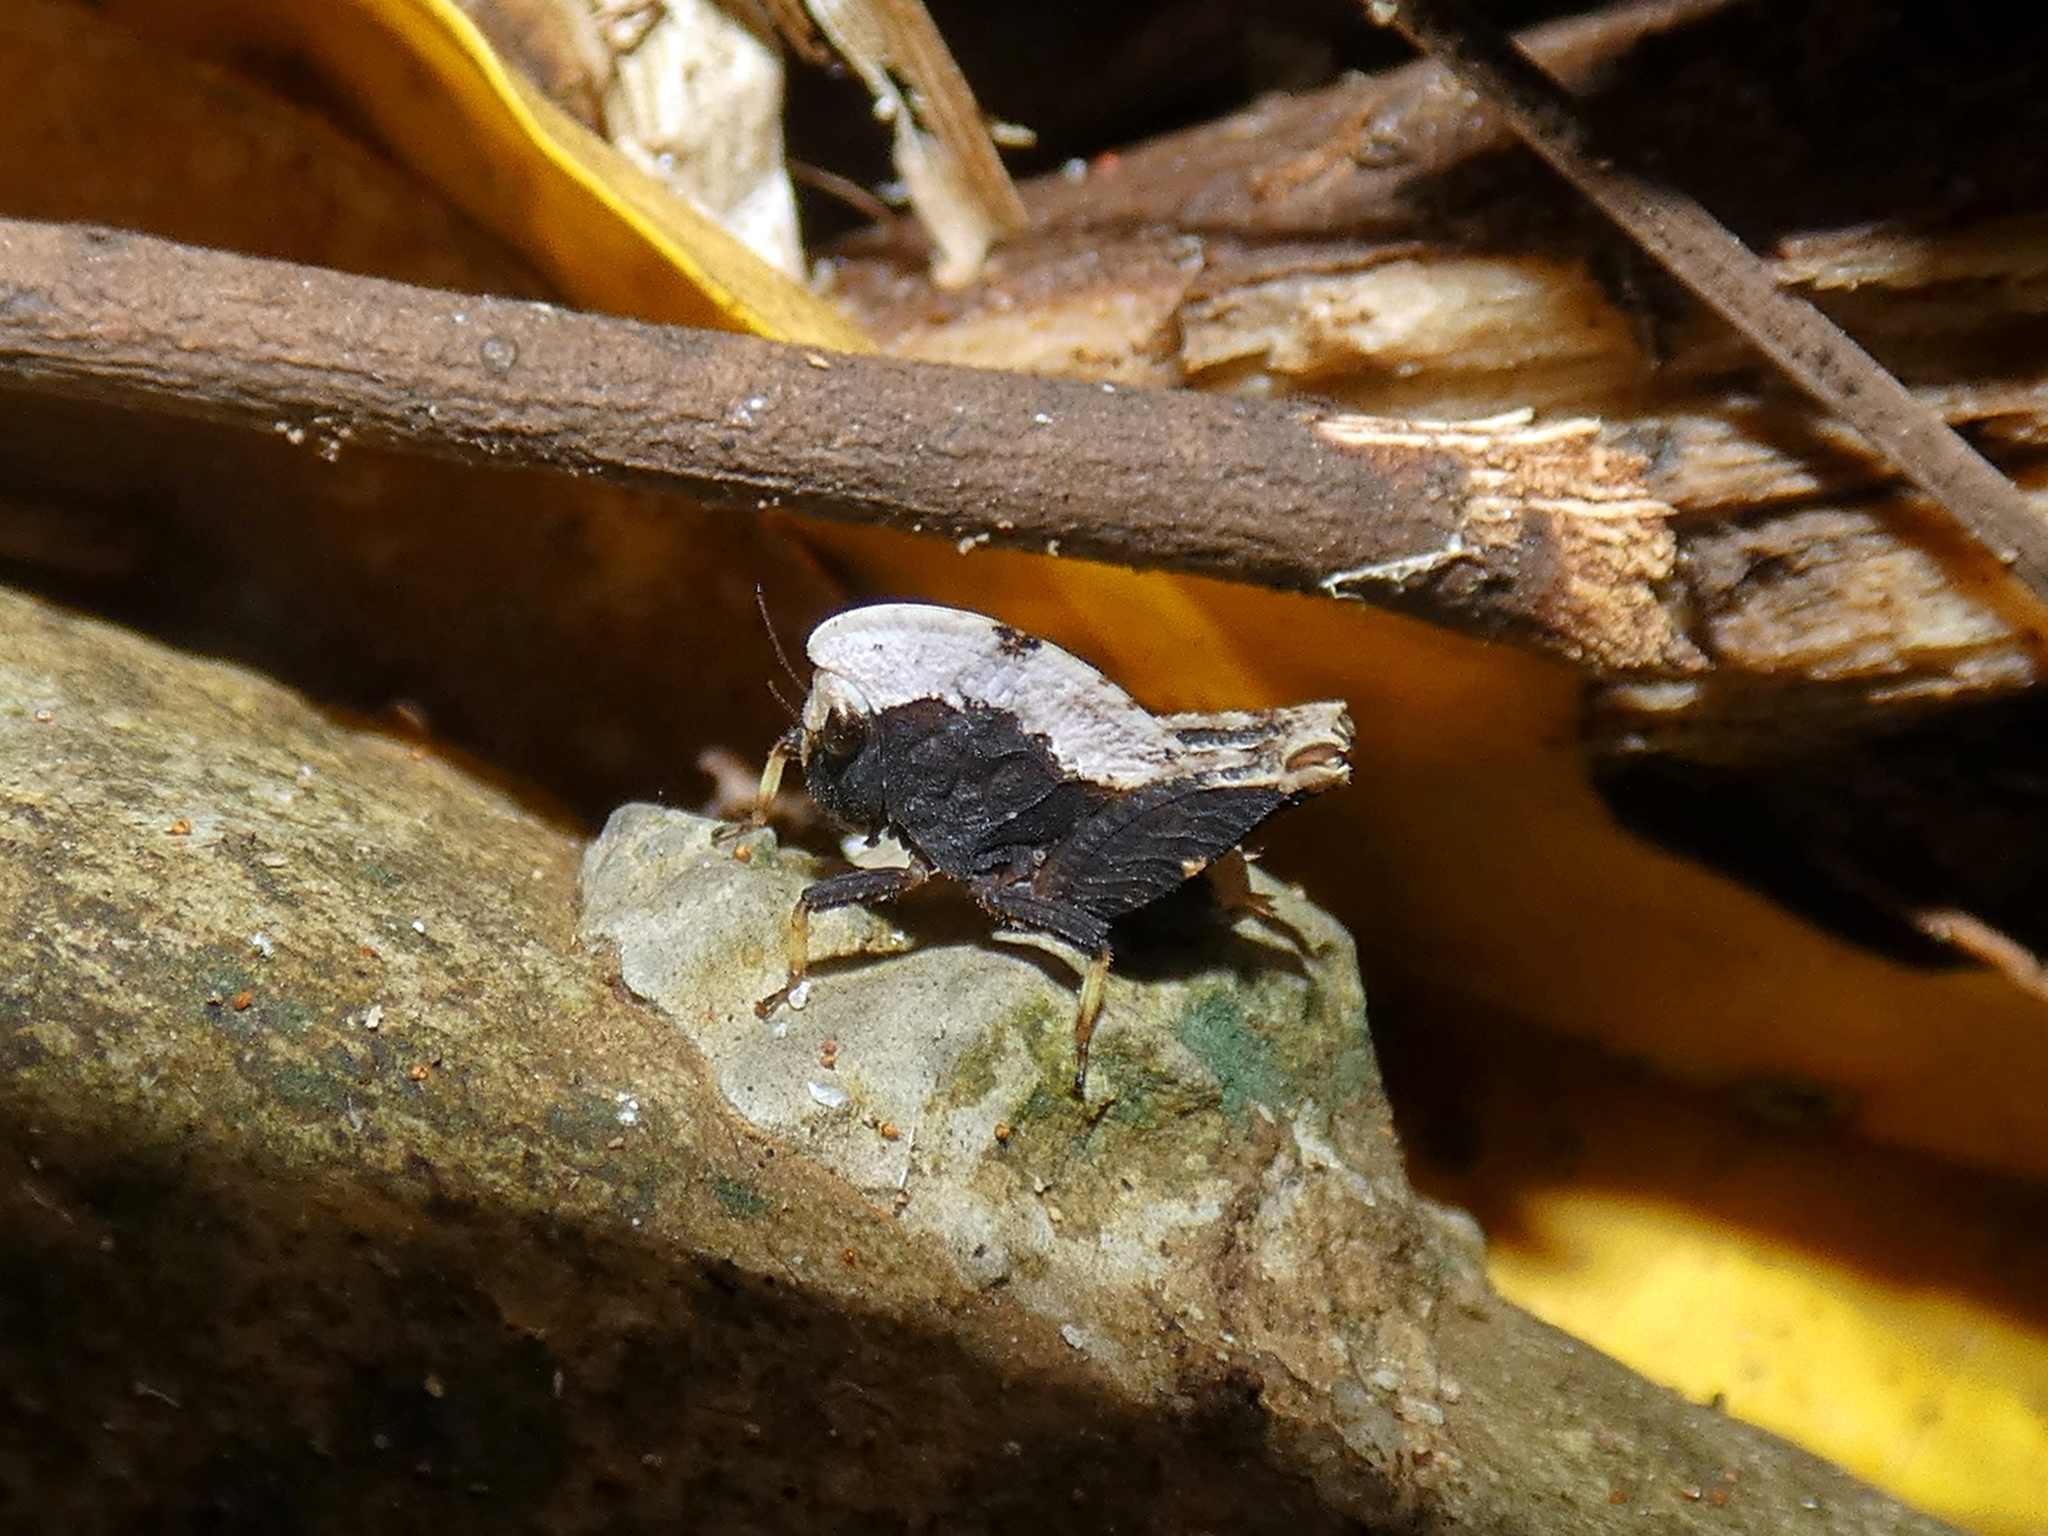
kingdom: Animalia
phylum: Arthropoda
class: Insecta
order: Orthoptera
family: Tetrigidae
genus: Selivinga
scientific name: Selivinga tribulata
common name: Tribulation helmed groundhopper
